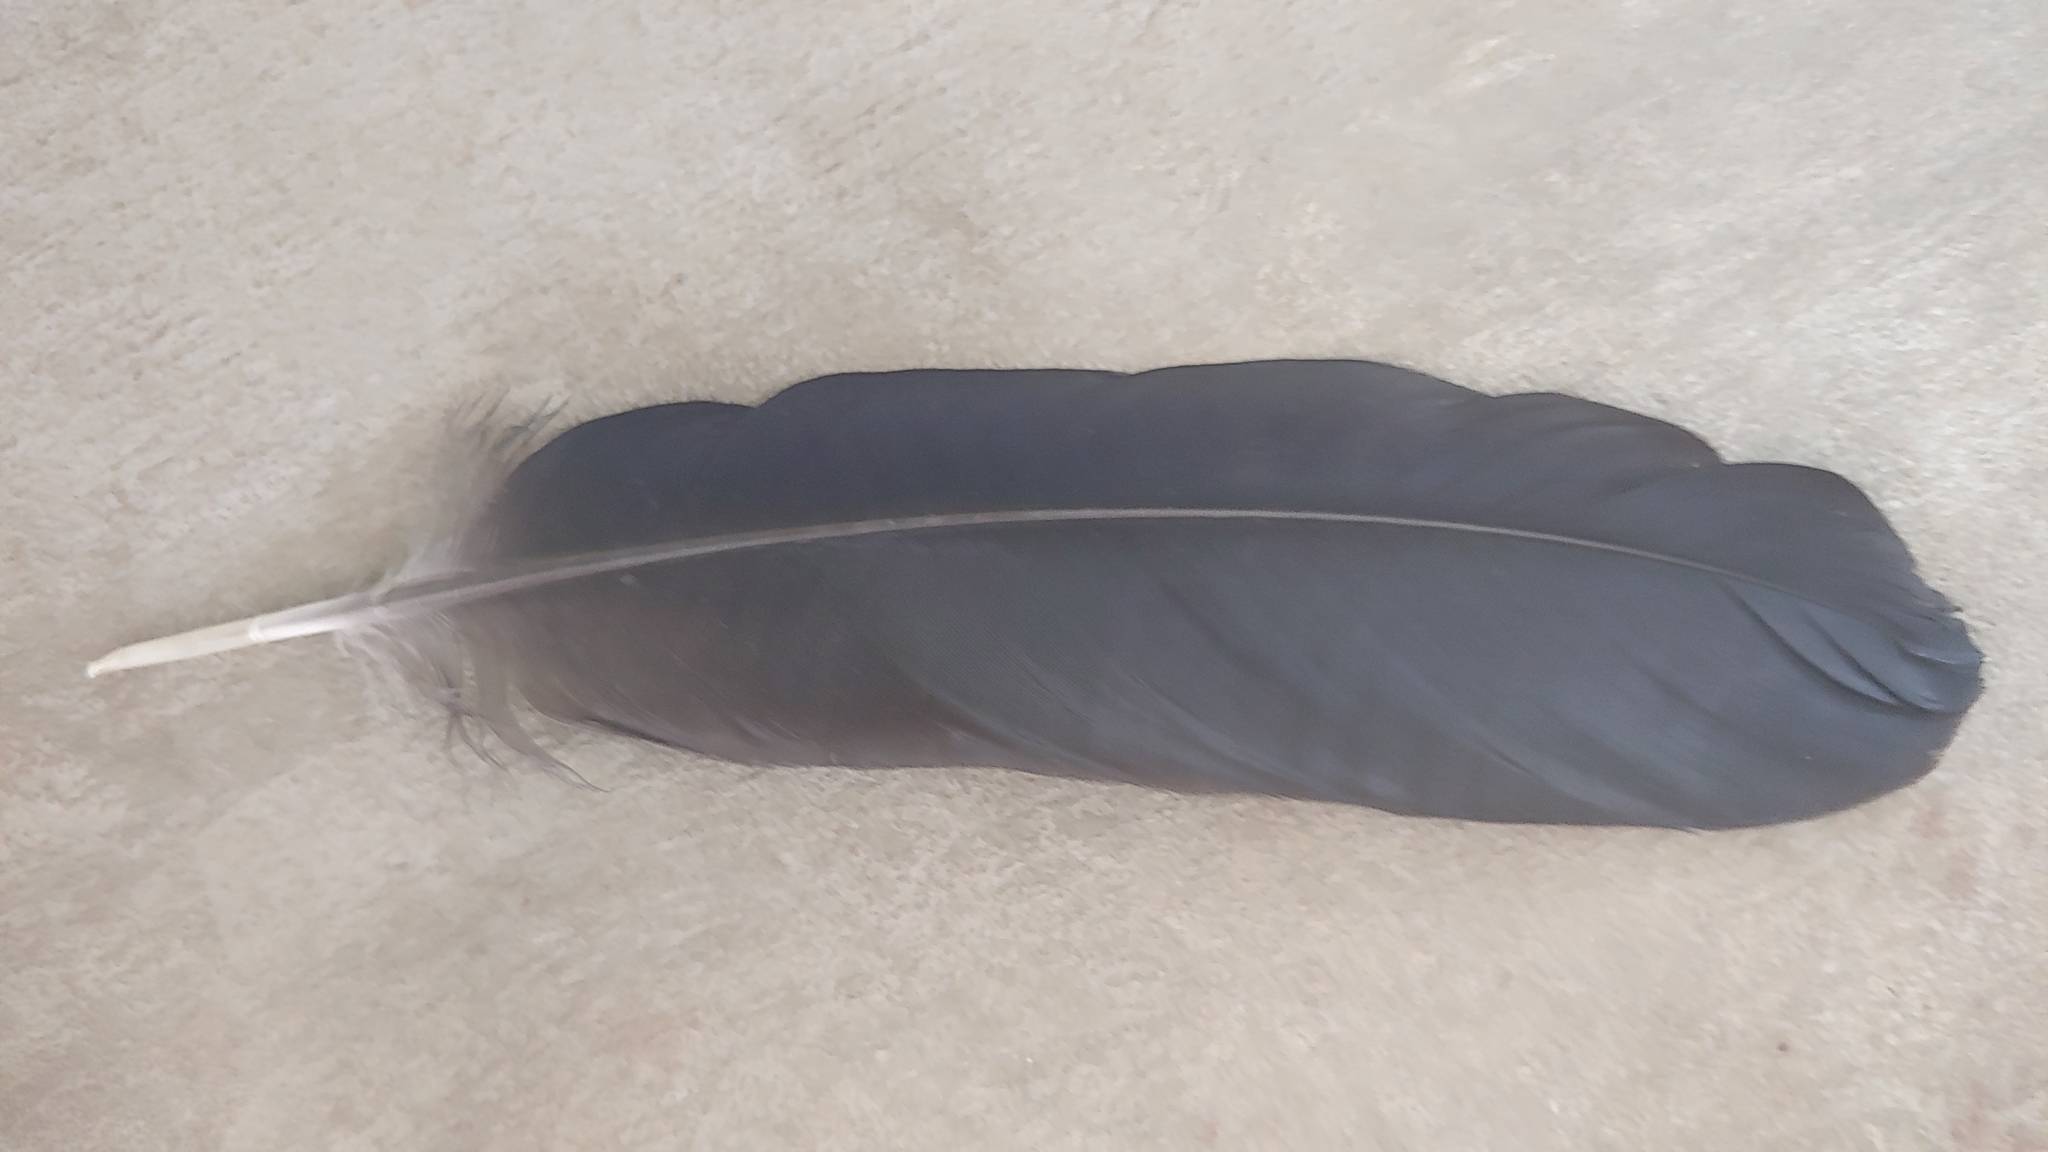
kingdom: Animalia
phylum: Chordata
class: Aves
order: Passeriformes
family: Corvidae
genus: Corvus
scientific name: Corvus corax
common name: Common raven
